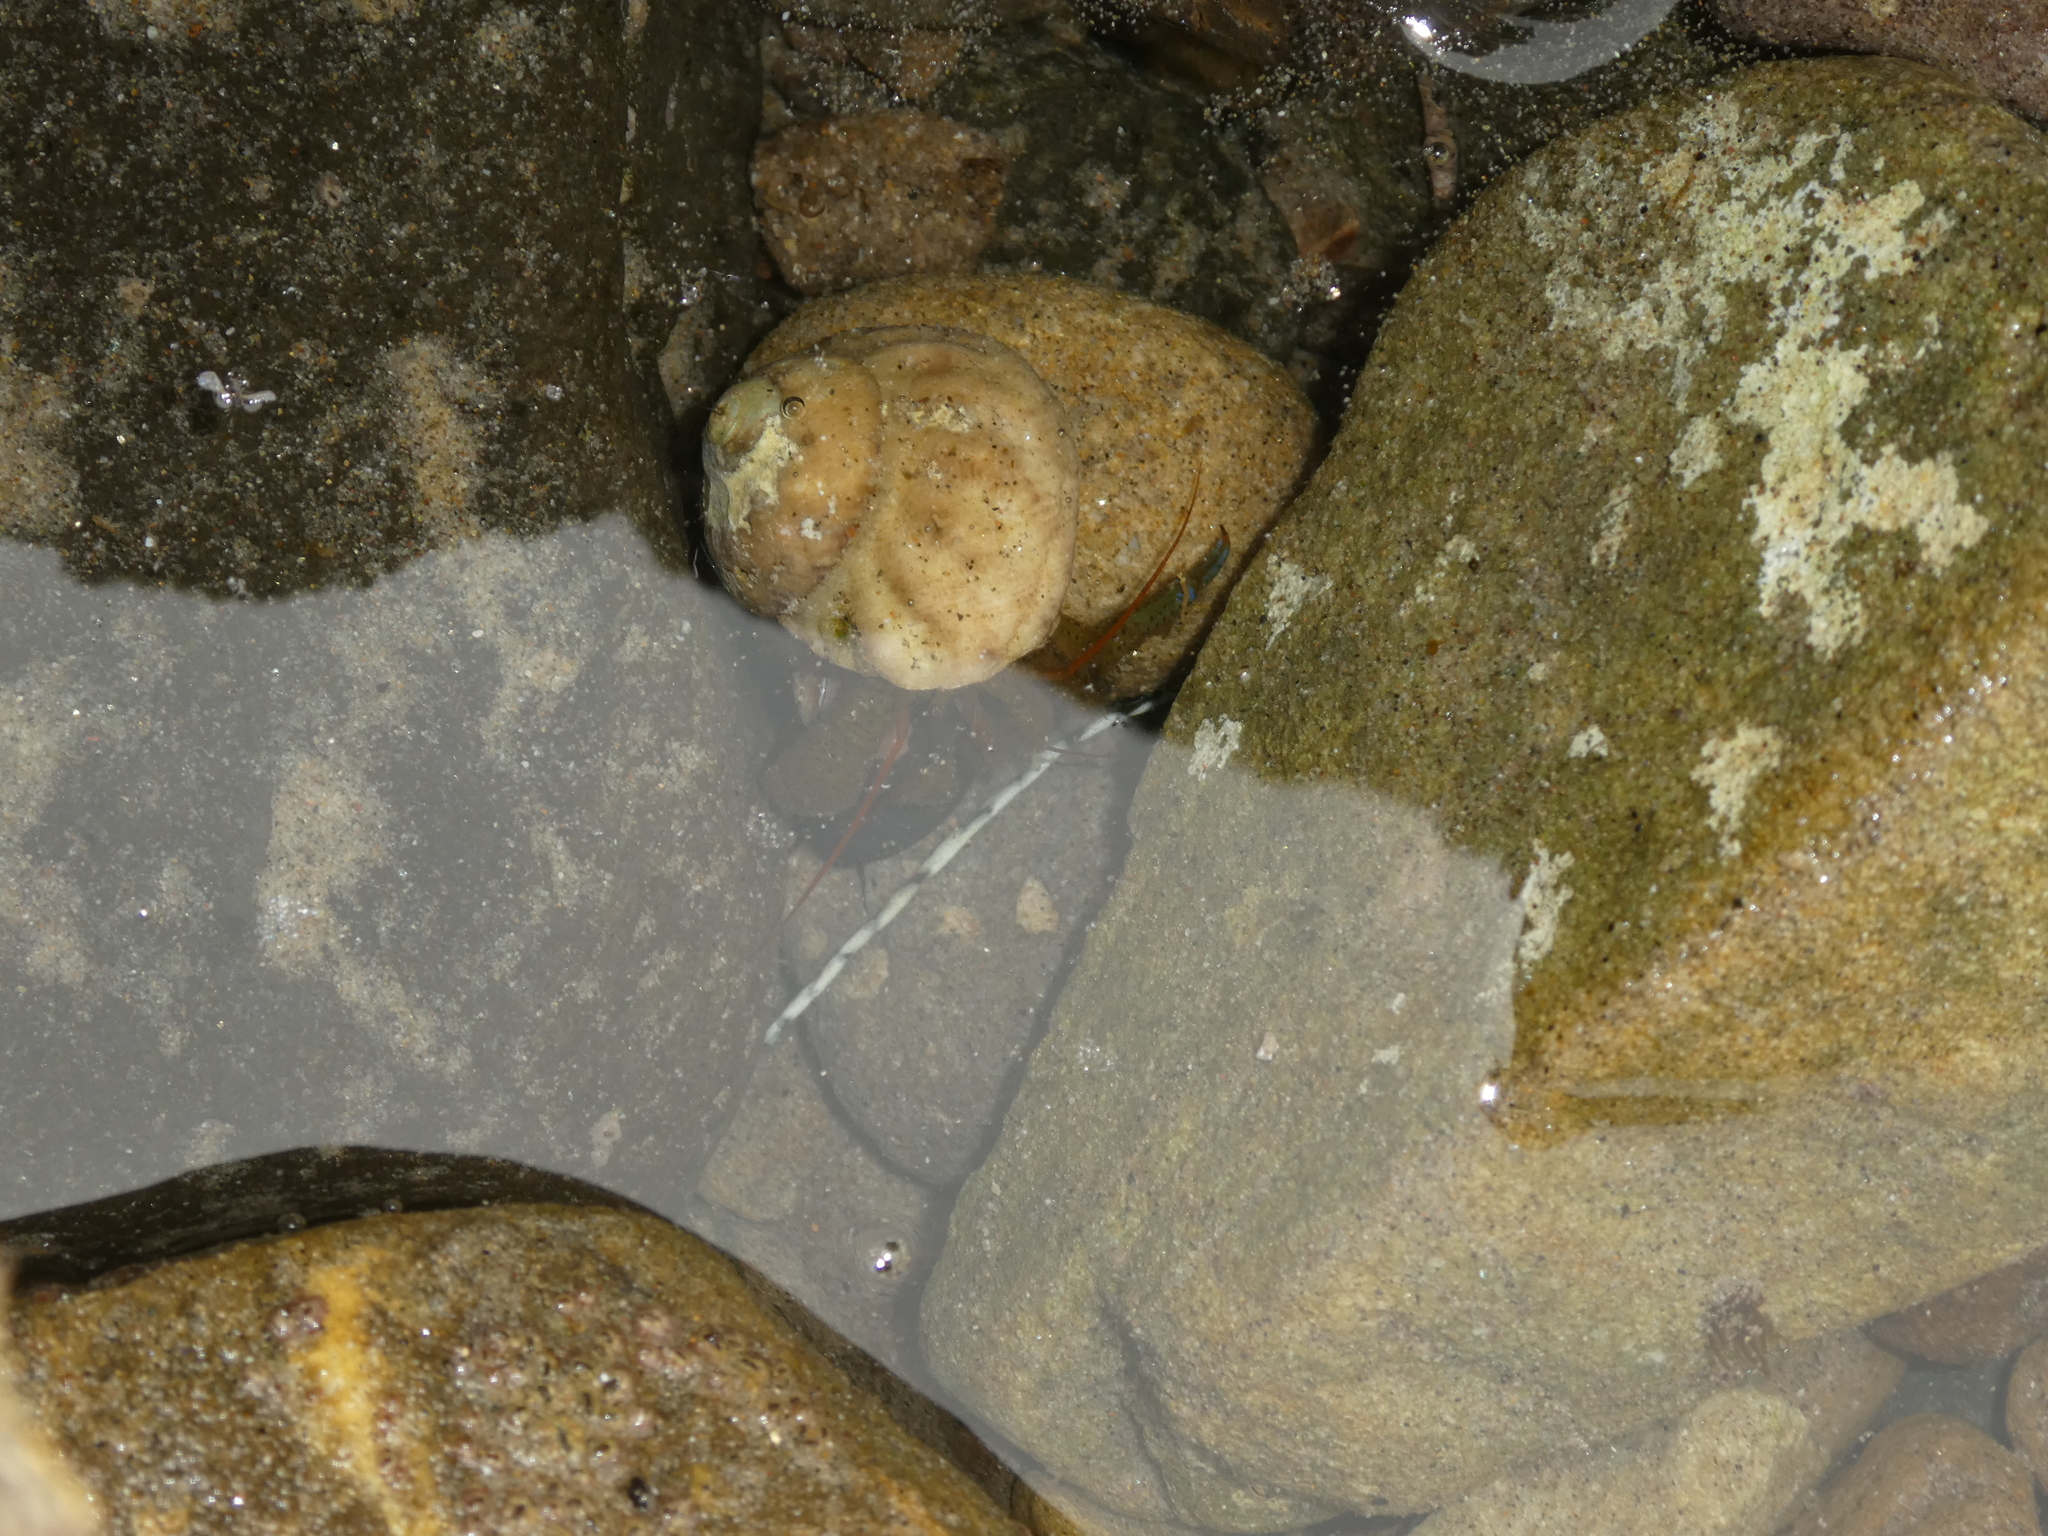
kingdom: Animalia
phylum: Arthropoda
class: Malacostraca
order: Decapoda
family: Paguridae
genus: Pagurus
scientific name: Pagurus samuelis
